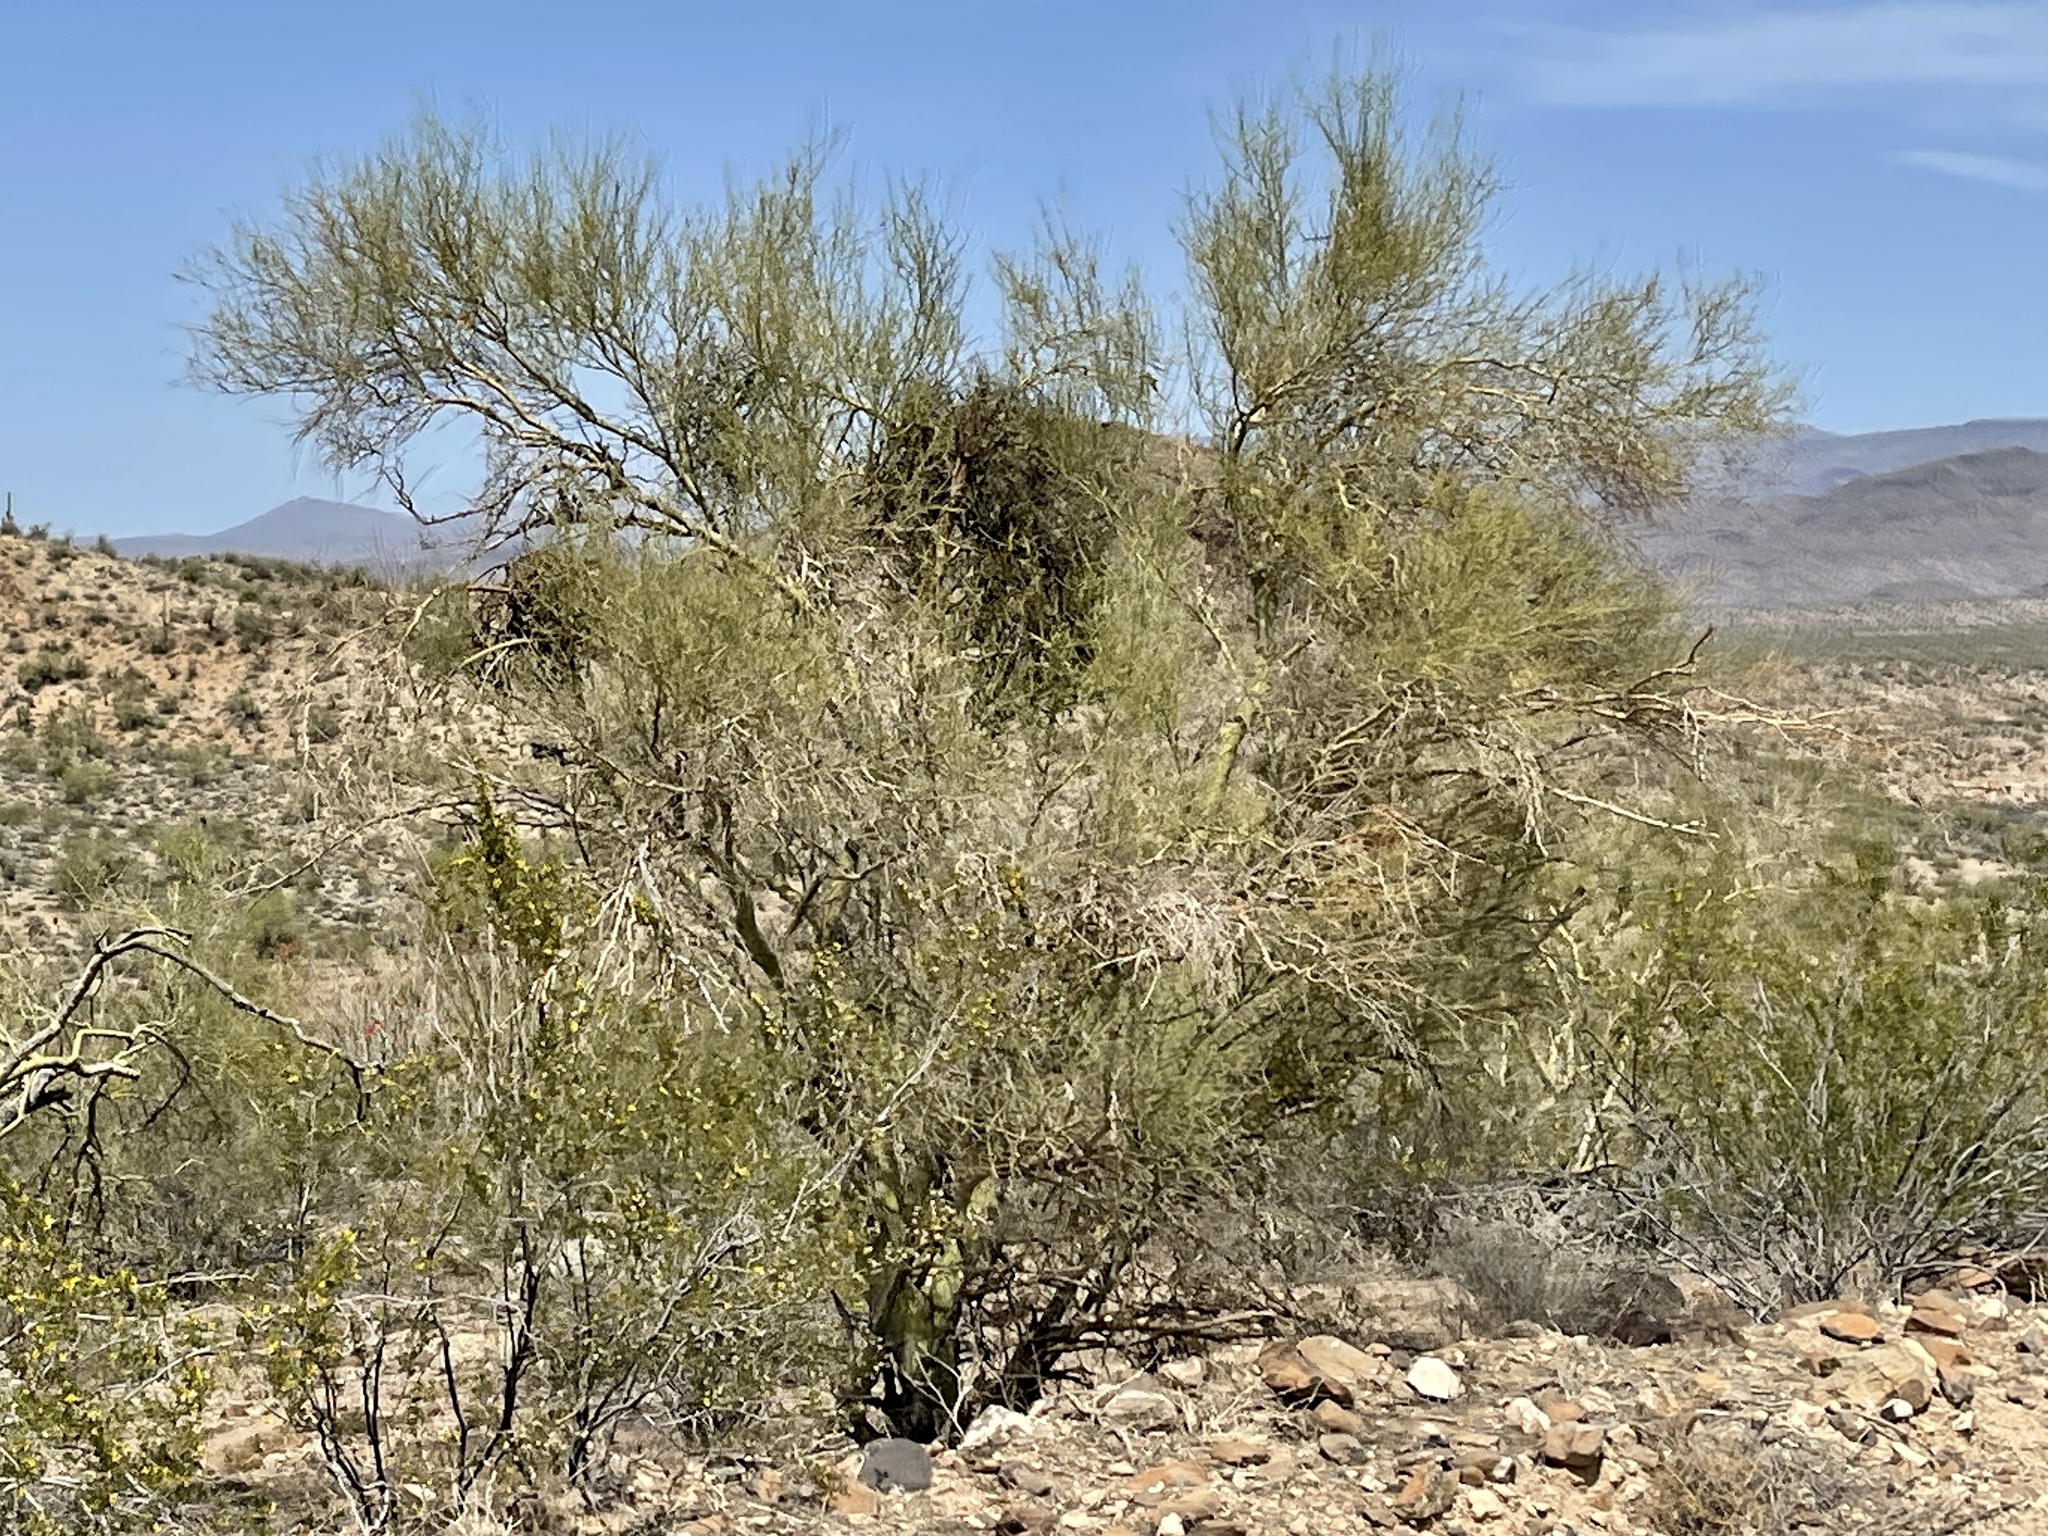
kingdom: Plantae
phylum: Tracheophyta
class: Magnoliopsida
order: Fabales
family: Fabaceae
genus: Parkinsonia
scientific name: Parkinsonia microphylla
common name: Yellow paloverde
